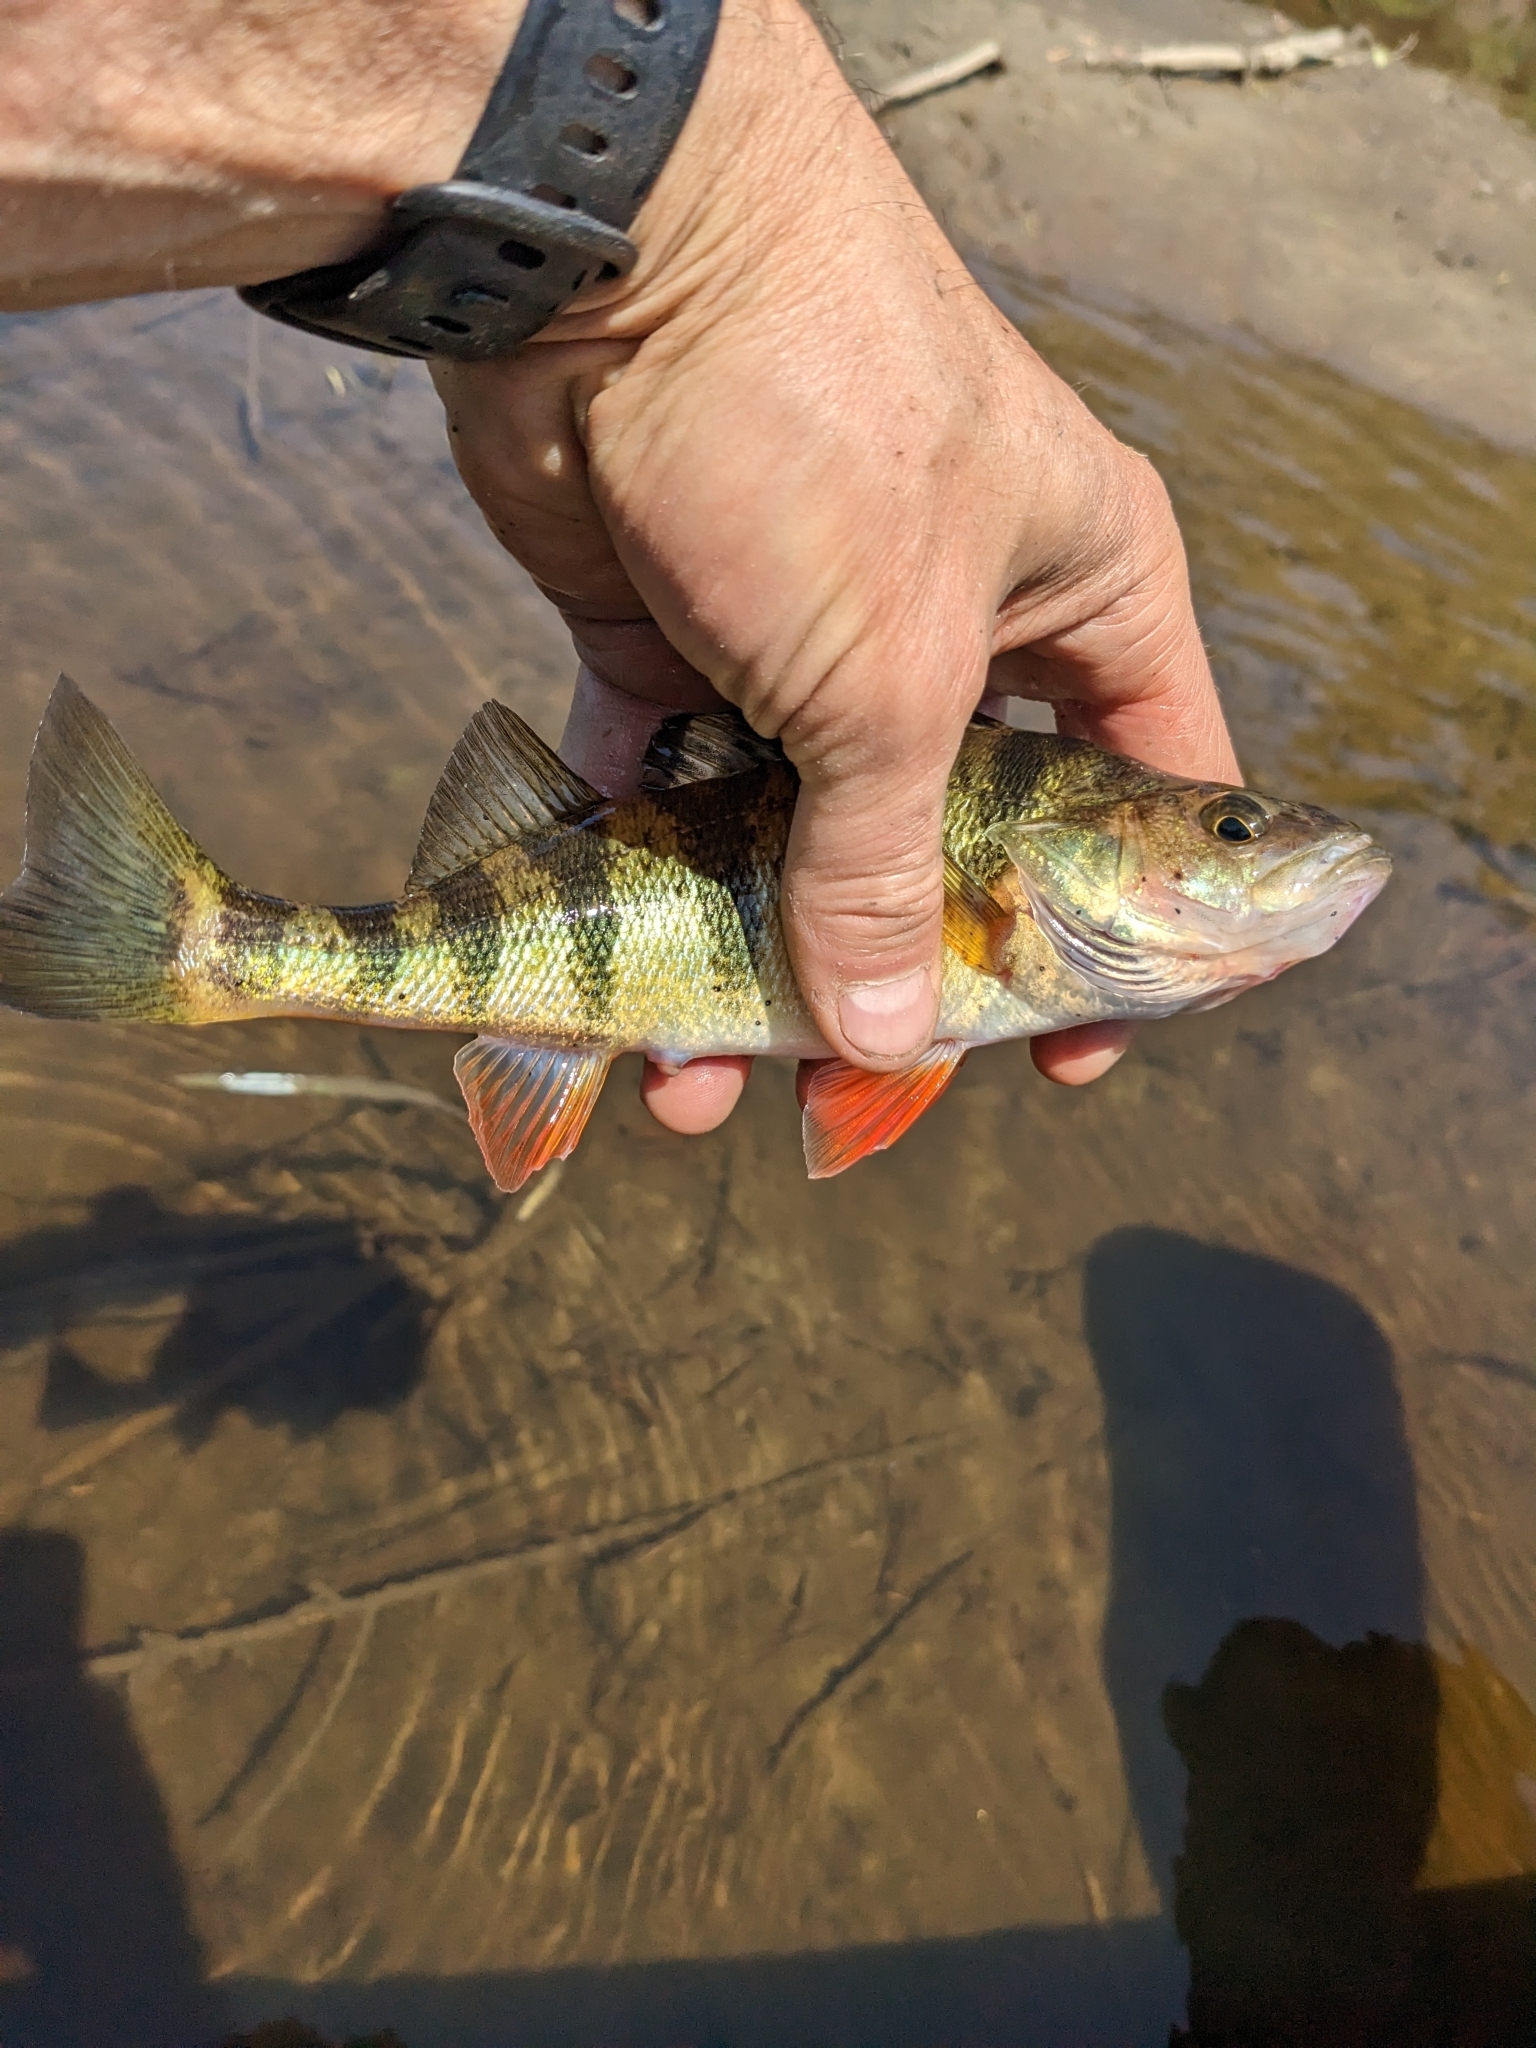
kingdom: Animalia
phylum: Chordata
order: Perciformes
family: Percidae
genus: Perca
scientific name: Perca flavescens
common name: Yellow perch
